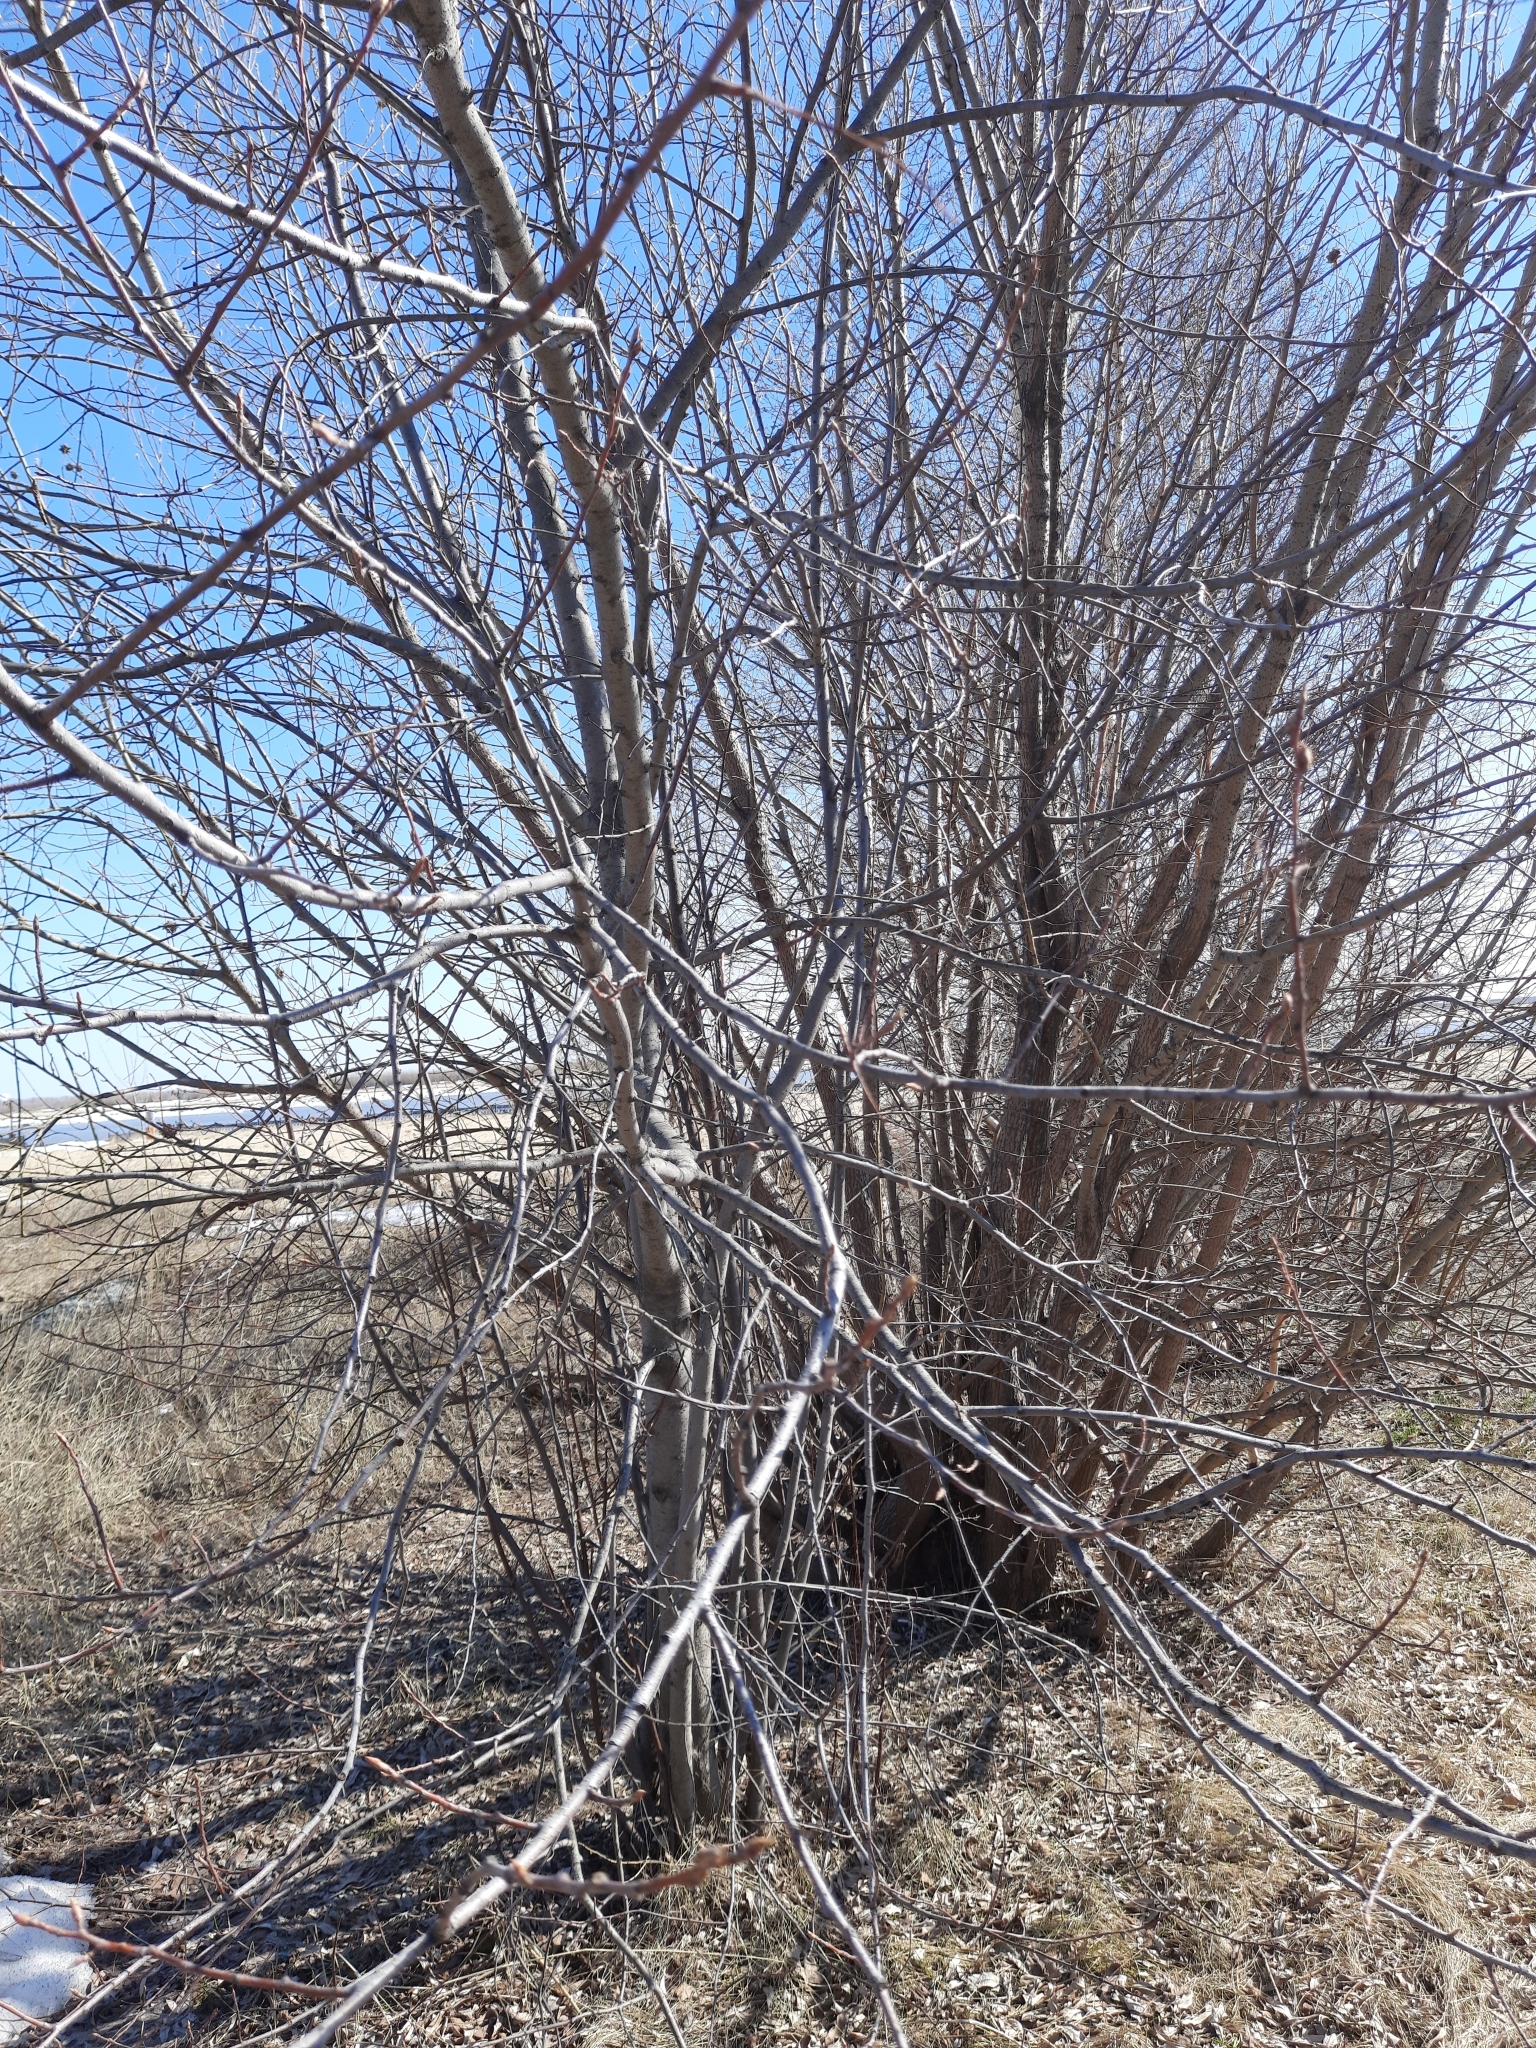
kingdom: Plantae
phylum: Tracheophyta
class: Magnoliopsida
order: Rosales
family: Rosaceae
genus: Prunus
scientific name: Prunus padus
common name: Bird cherry
